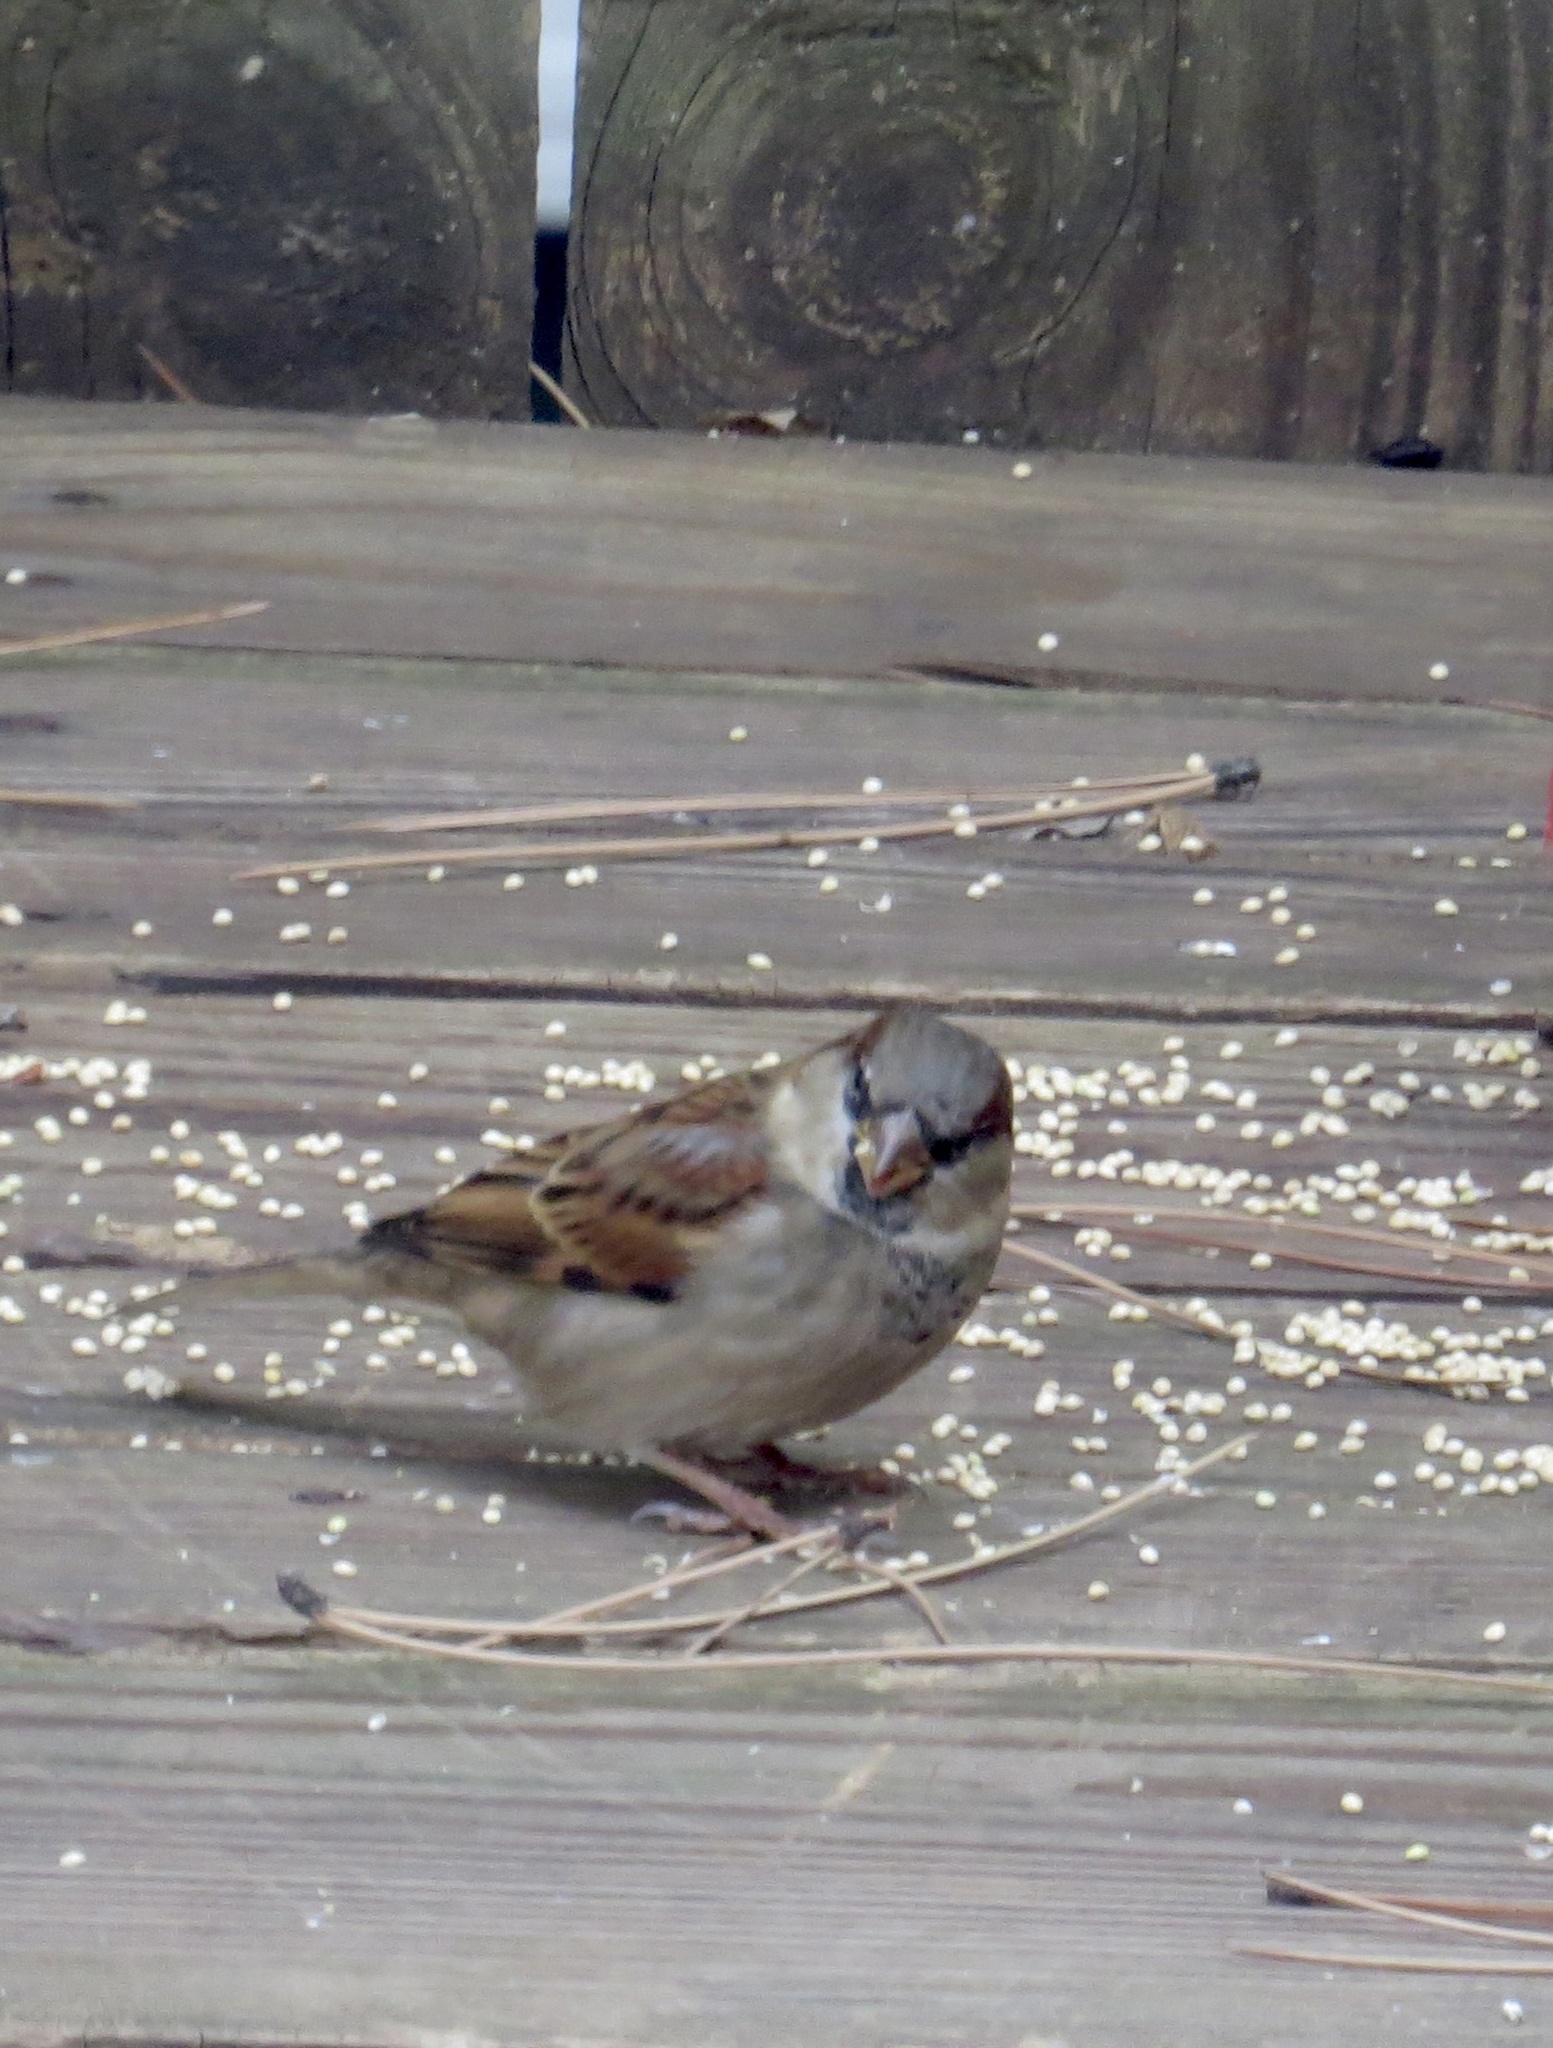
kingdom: Animalia
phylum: Chordata
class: Aves
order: Passeriformes
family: Passeridae
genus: Passer
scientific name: Passer domesticus
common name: House sparrow
